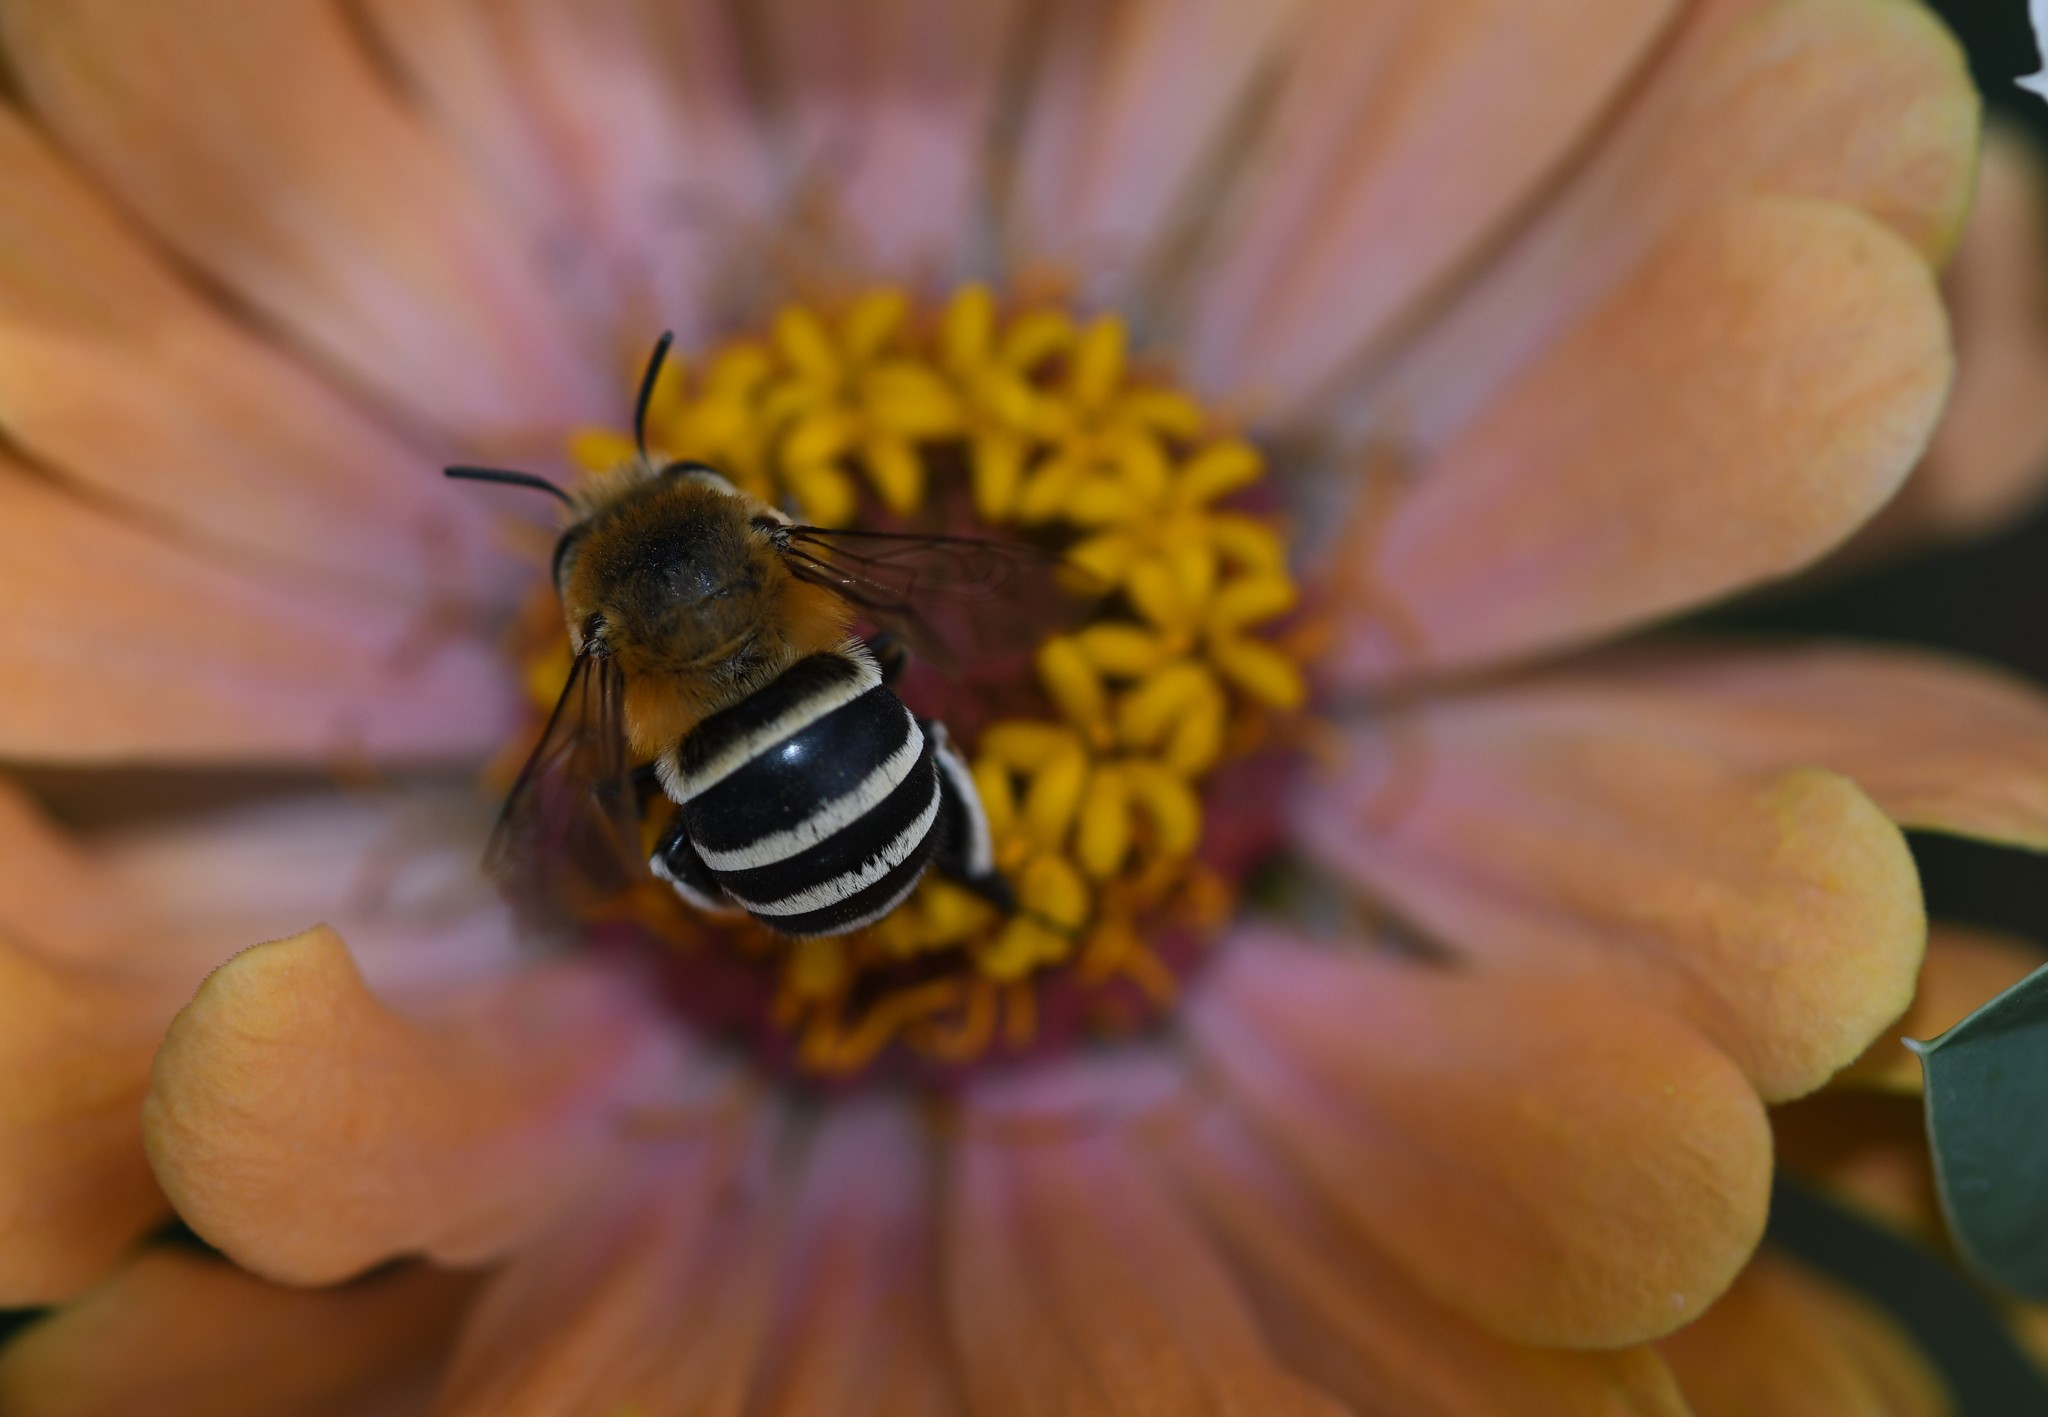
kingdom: Animalia
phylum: Arthropoda
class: Insecta
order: Hymenoptera
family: Apidae
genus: Amegilla
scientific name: Amegilla quadrifasciata
